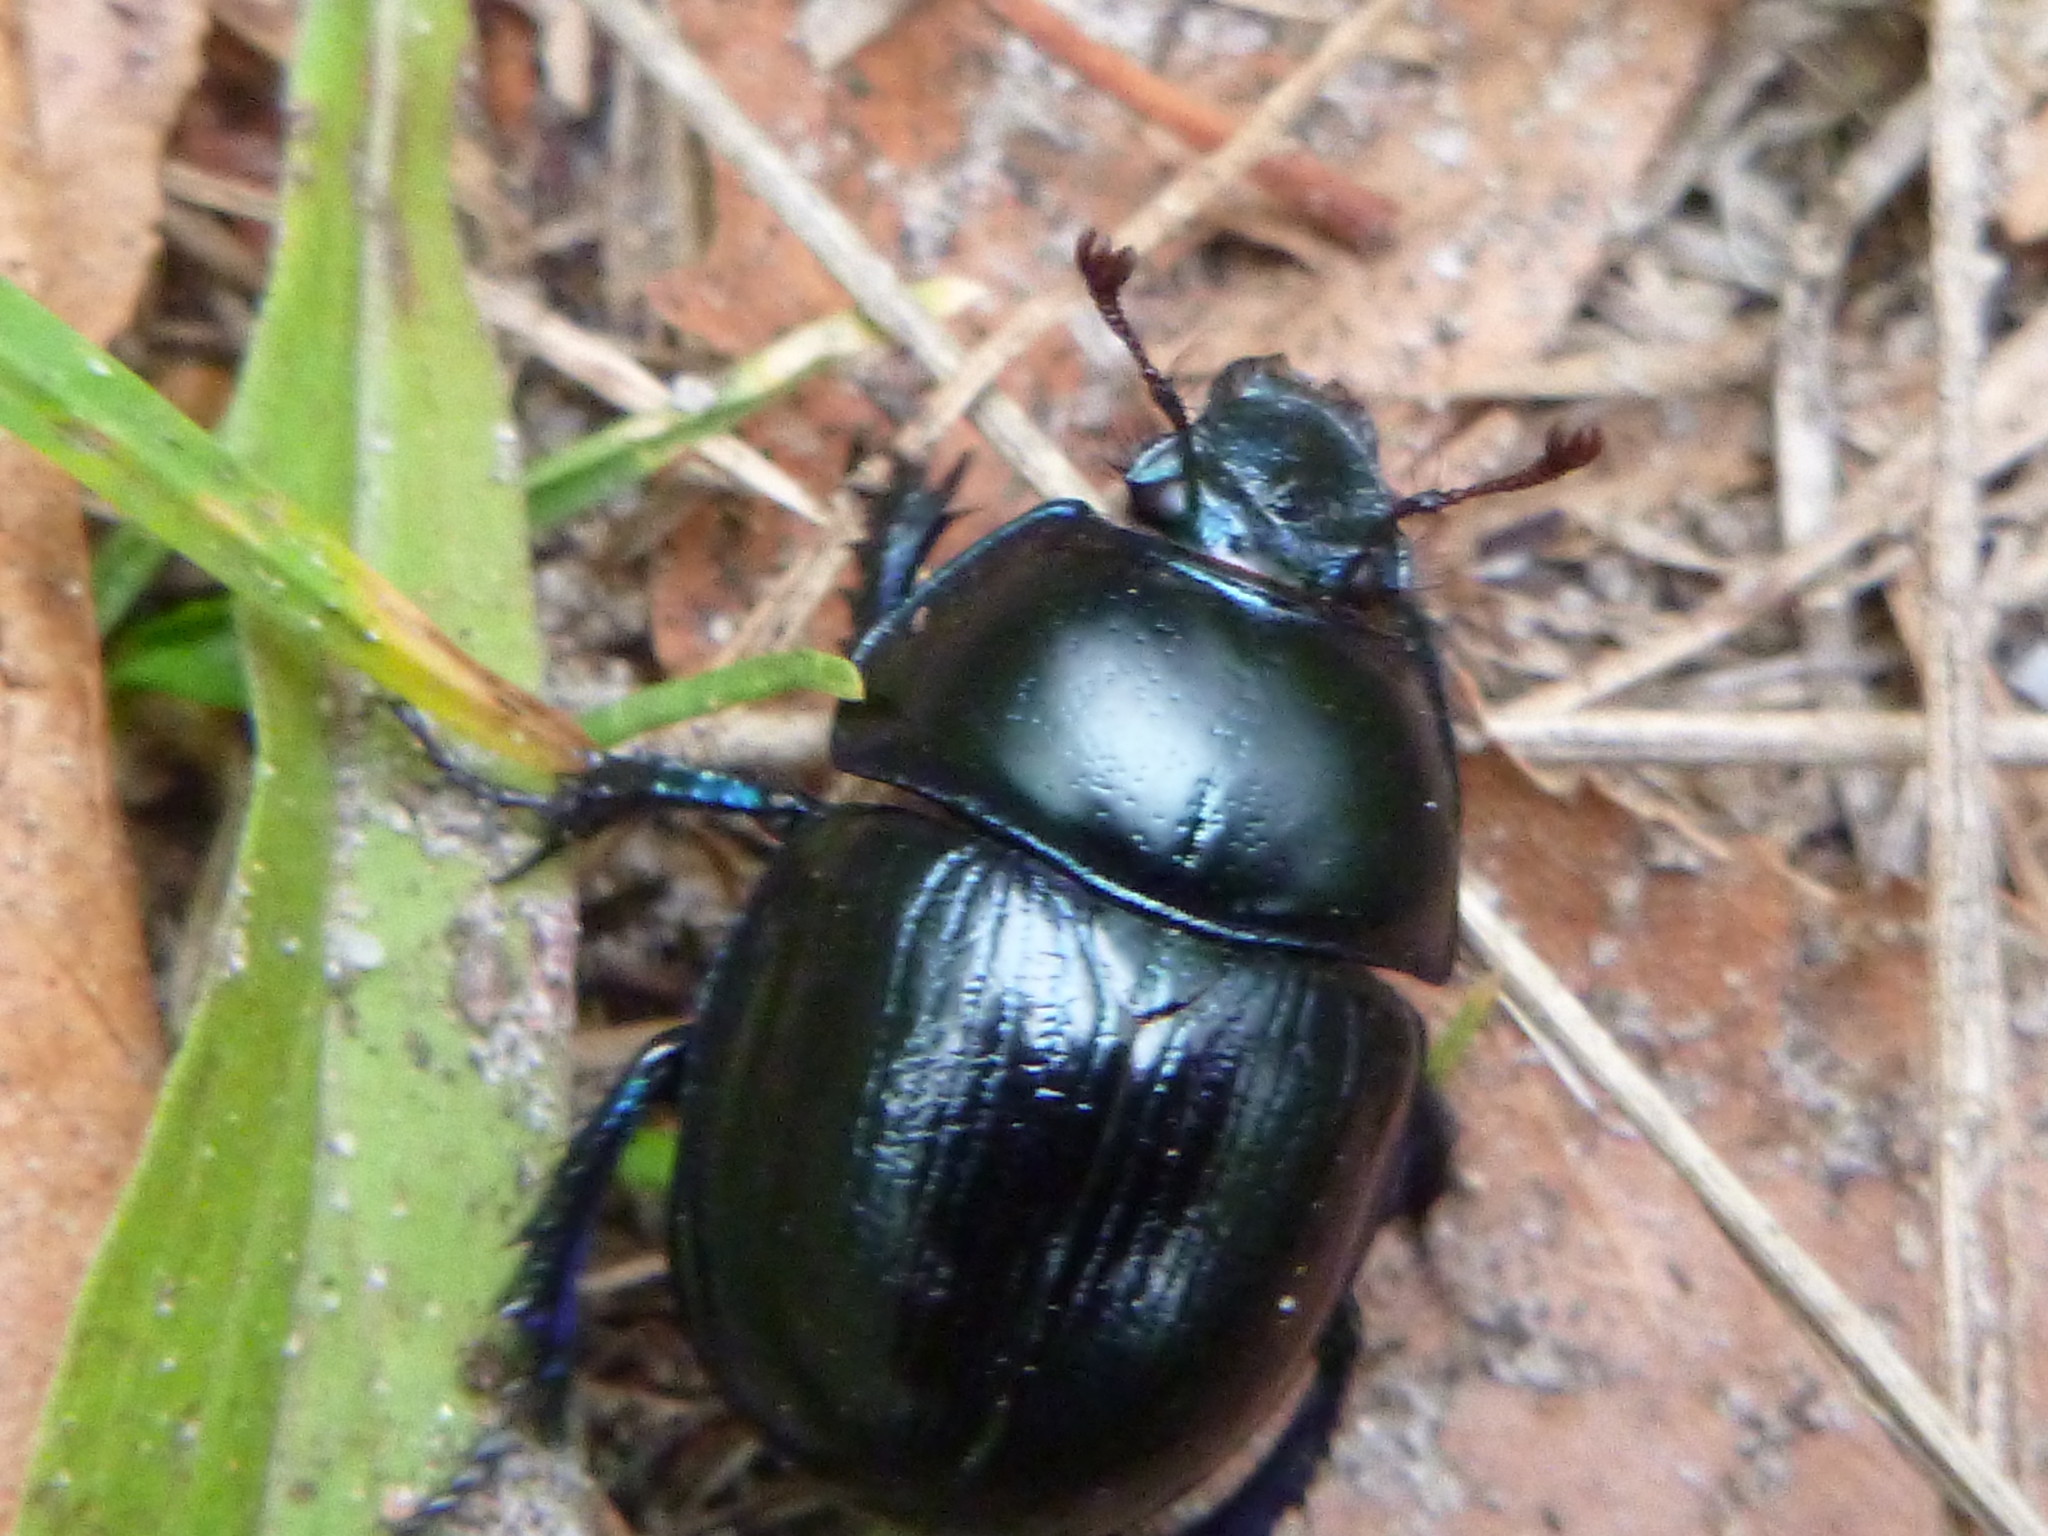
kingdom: Animalia
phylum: Arthropoda
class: Insecta
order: Coleoptera
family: Geotrupidae
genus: Anoplotrupes
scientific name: Anoplotrupes stercorosus
